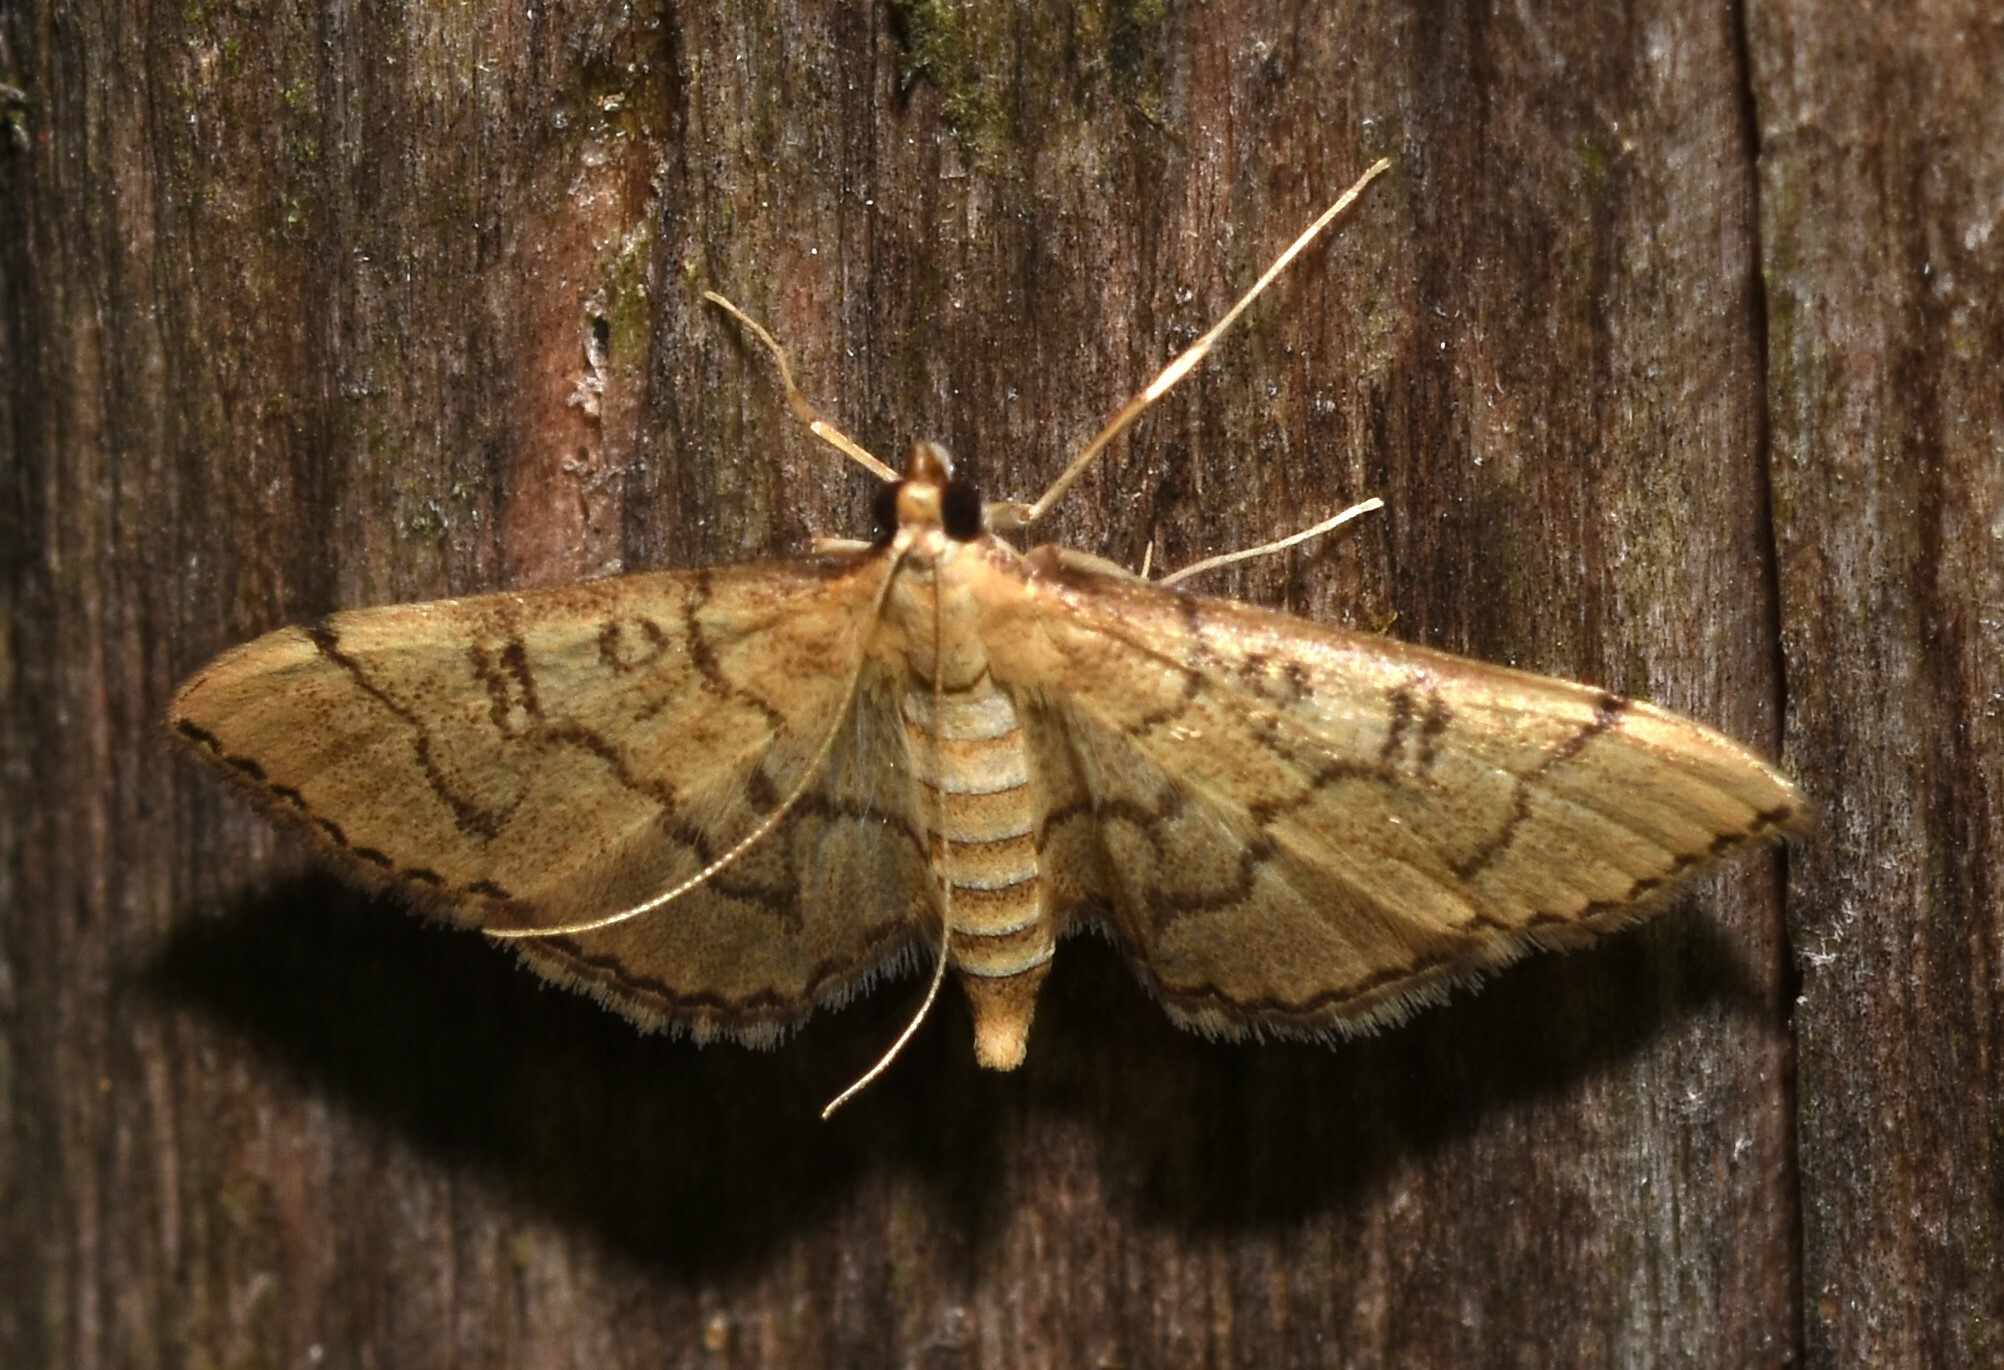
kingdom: Animalia
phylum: Arthropoda
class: Insecta
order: Lepidoptera
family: Crambidae
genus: Lamprosema
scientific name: Lamprosema Blepharomastix ranalis
